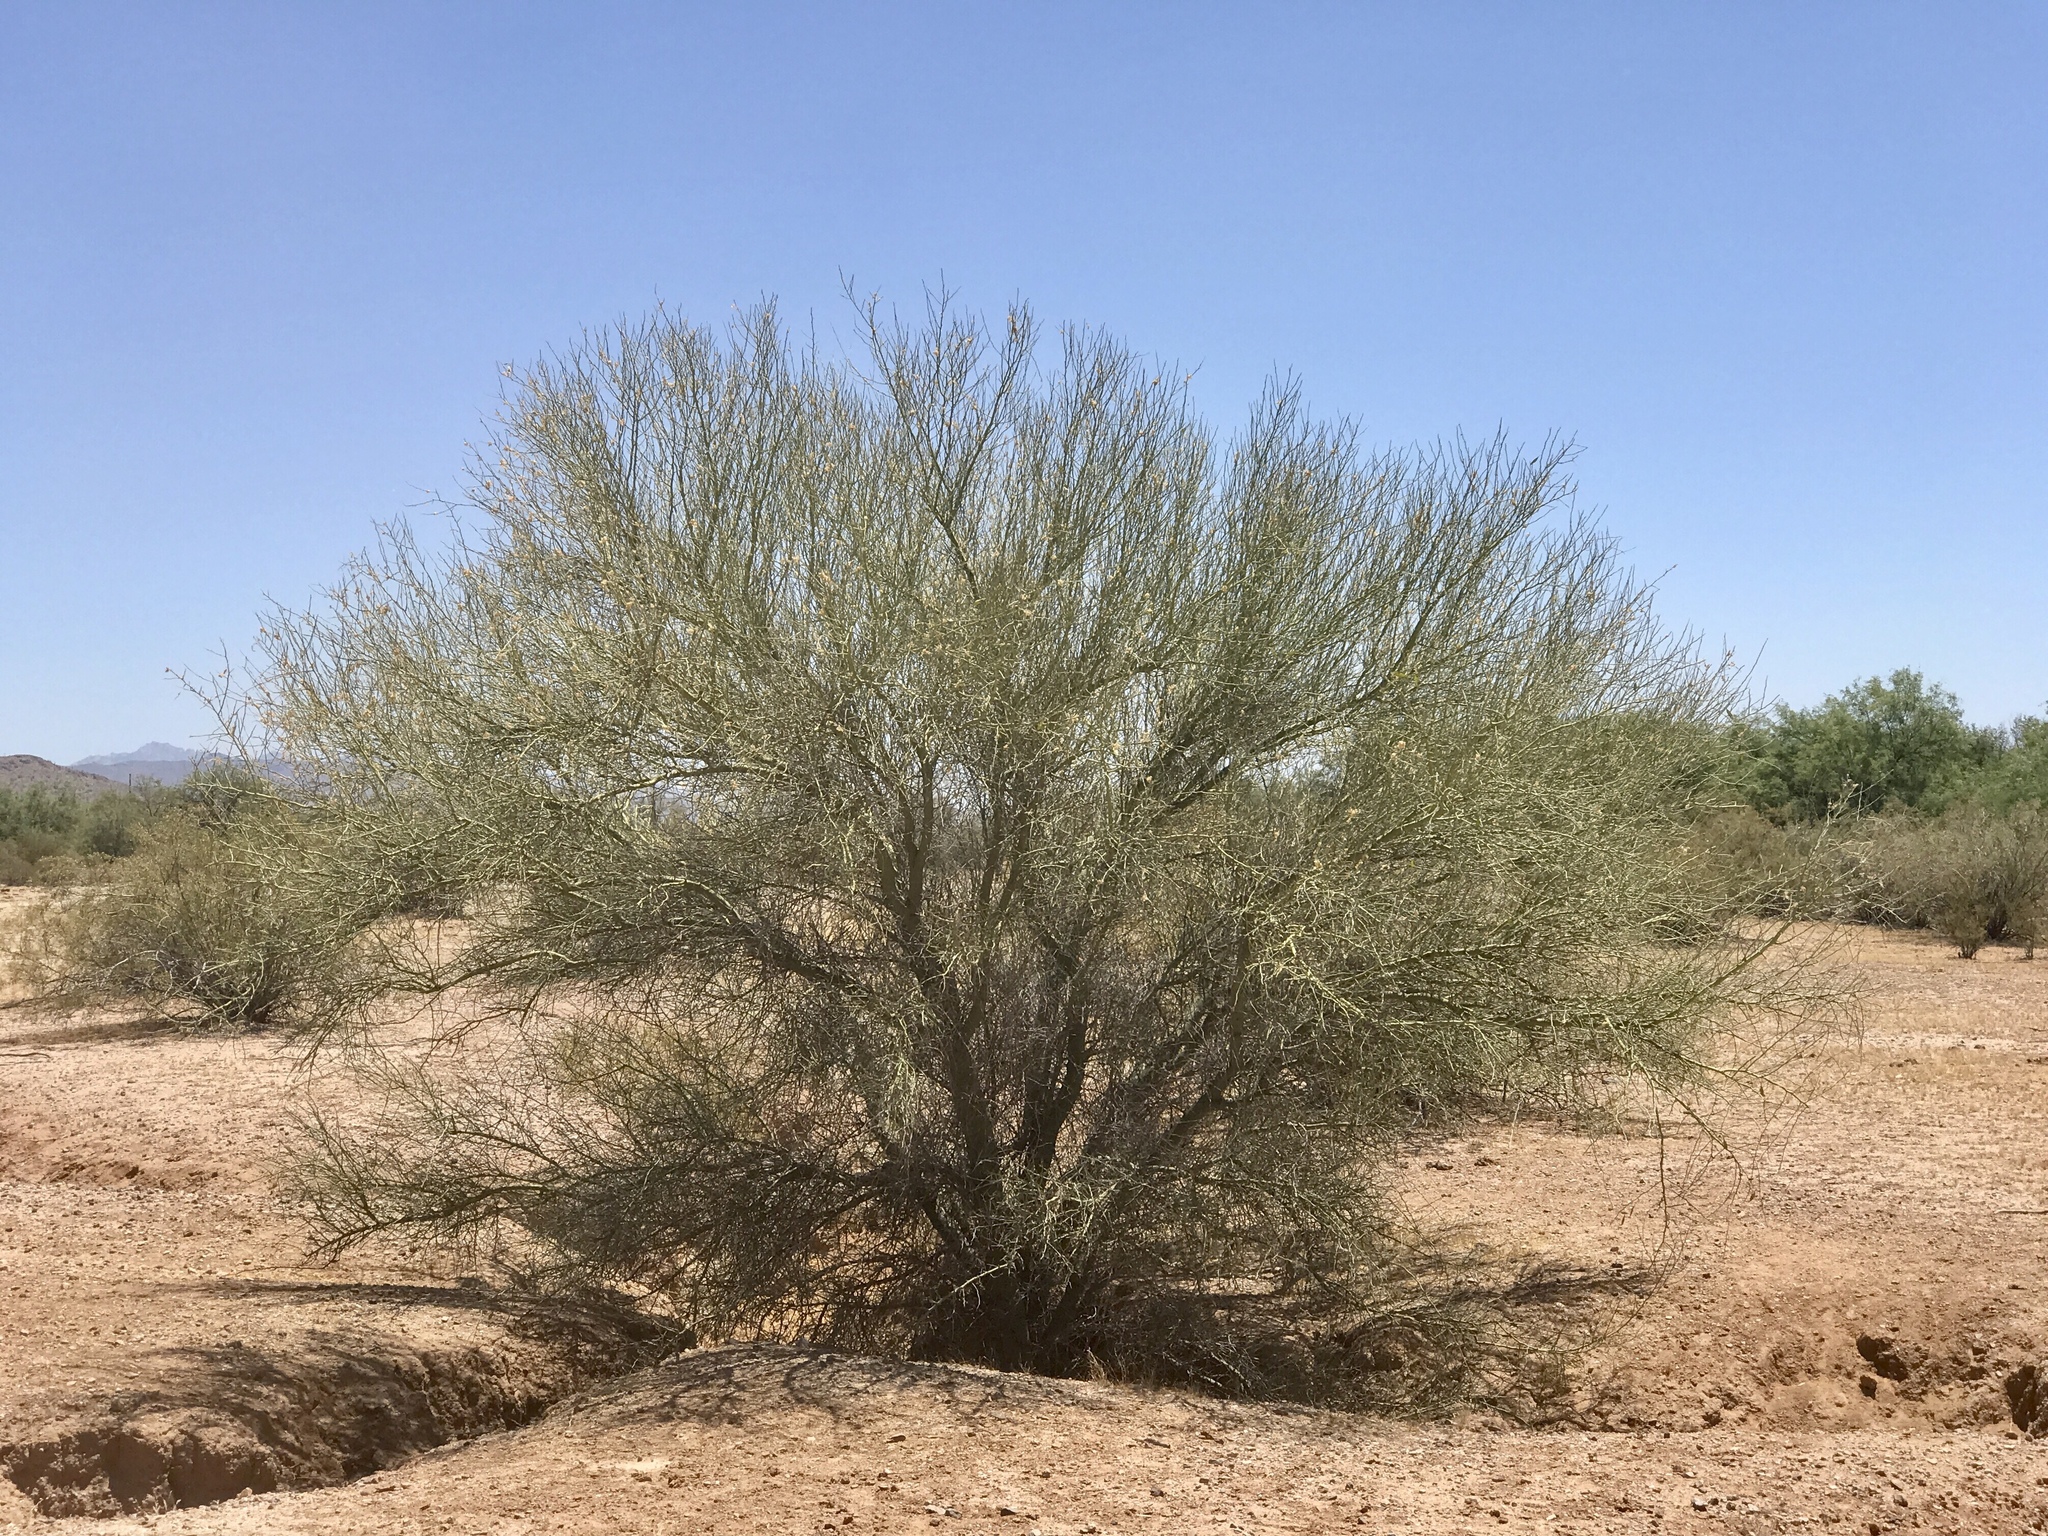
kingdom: Plantae
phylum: Tracheophyta
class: Magnoliopsida
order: Fabales
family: Fabaceae
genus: Parkinsonia
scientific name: Parkinsonia florida
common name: Blue paloverde
